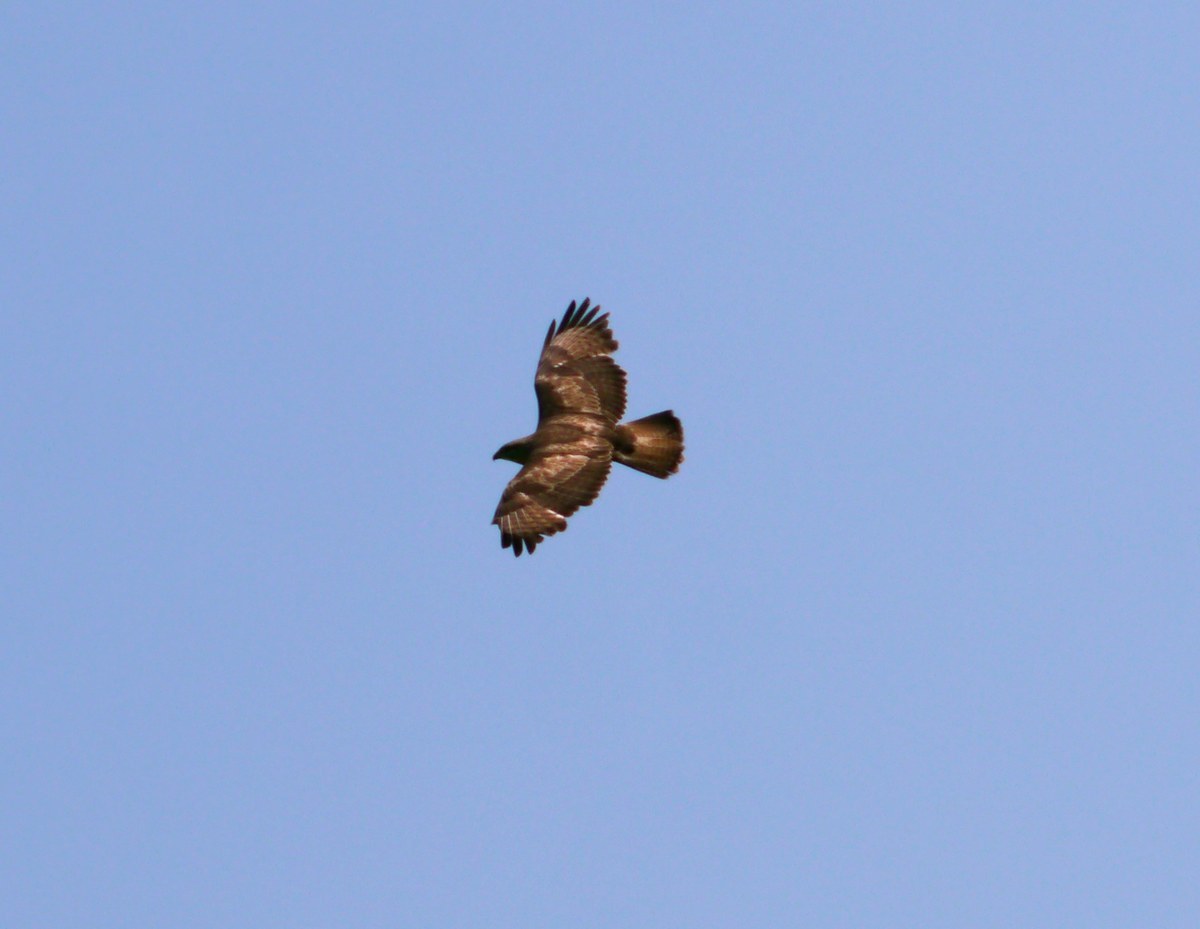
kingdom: Animalia
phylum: Chordata
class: Aves
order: Accipitriformes
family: Accipitridae
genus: Buteo
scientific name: Buteo buteo
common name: Common buzzard
